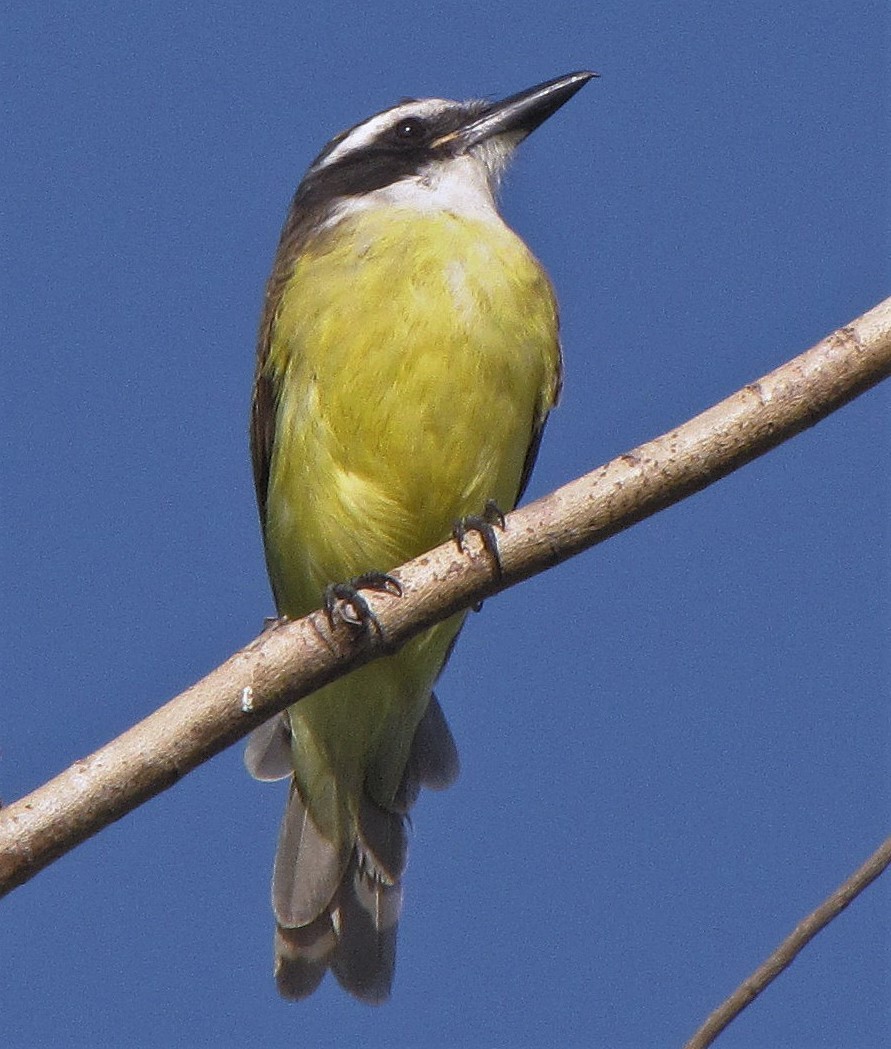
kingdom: Animalia
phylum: Chordata
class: Aves
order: Passeriformes
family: Tyrannidae
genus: Pitangus
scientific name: Pitangus sulphuratus
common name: Great kiskadee
